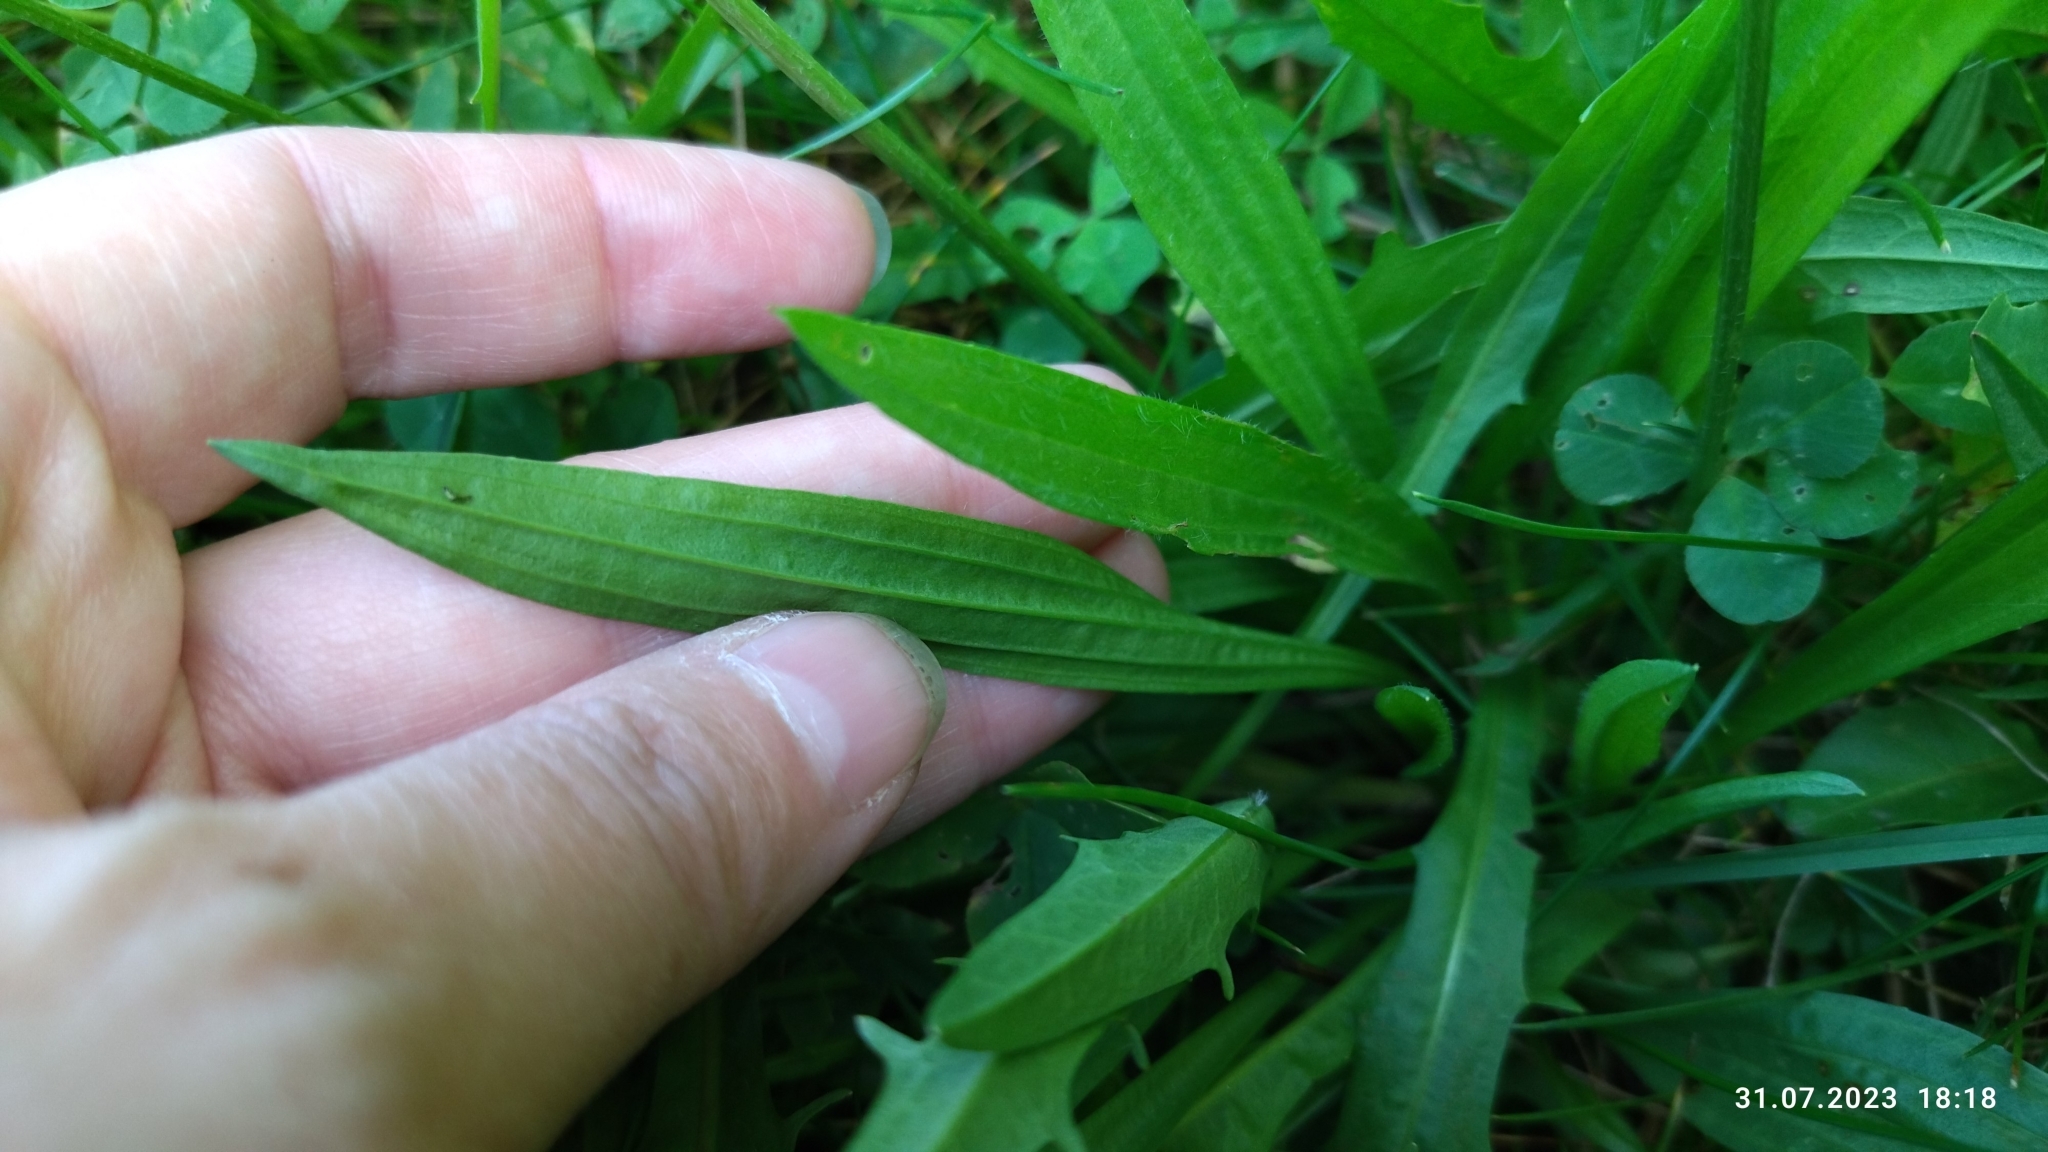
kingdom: Plantae
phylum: Tracheophyta
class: Magnoliopsida
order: Lamiales
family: Plantaginaceae
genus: Plantago
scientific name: Plantago lanceolata
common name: Ribwort plantain
